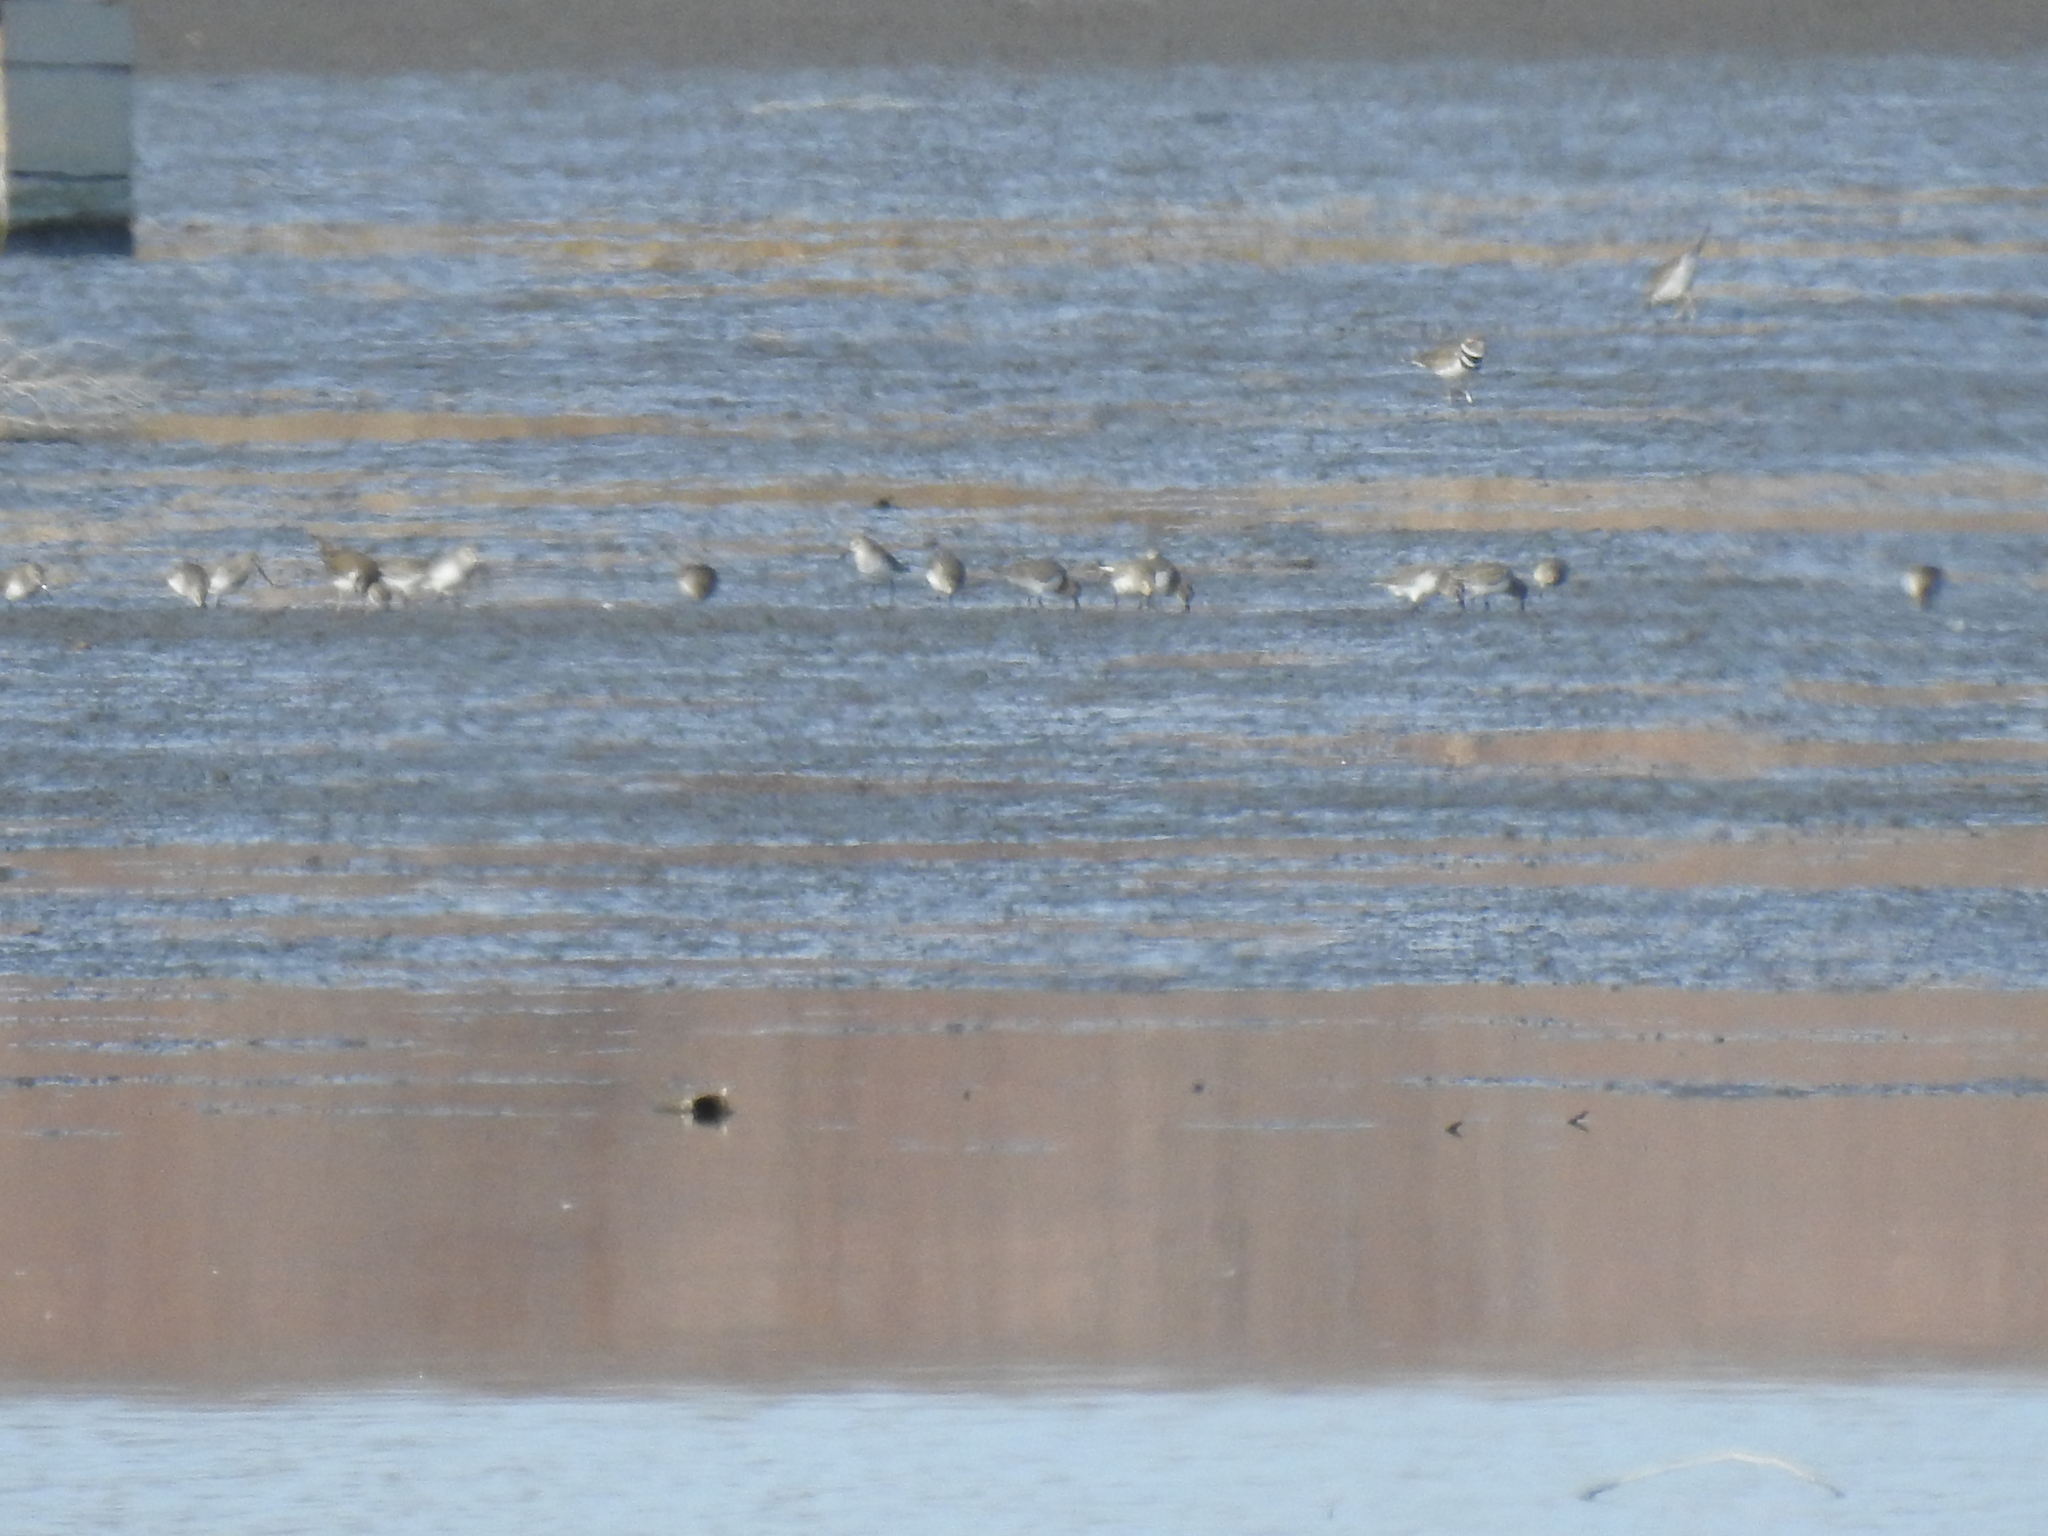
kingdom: Animalia
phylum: Chordata
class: Aves
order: Charadriiformes
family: Scolopacidae
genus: Calidris
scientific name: Calidris alpina
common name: Dunlin
